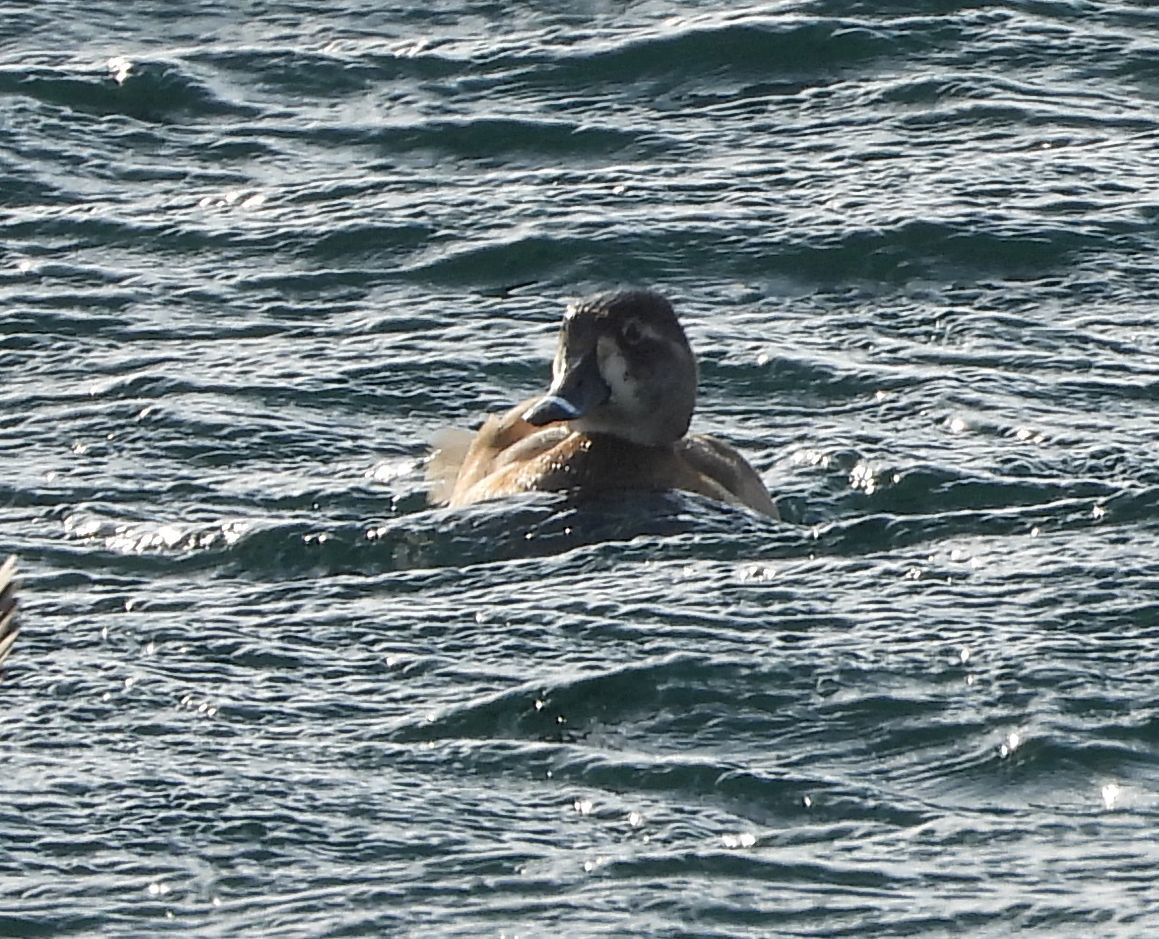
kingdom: Animalia
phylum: Chordata
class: Aves
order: Anseriformes
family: Anatidae
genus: Aythya
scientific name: Aythya collaris
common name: Ring-necked duck
